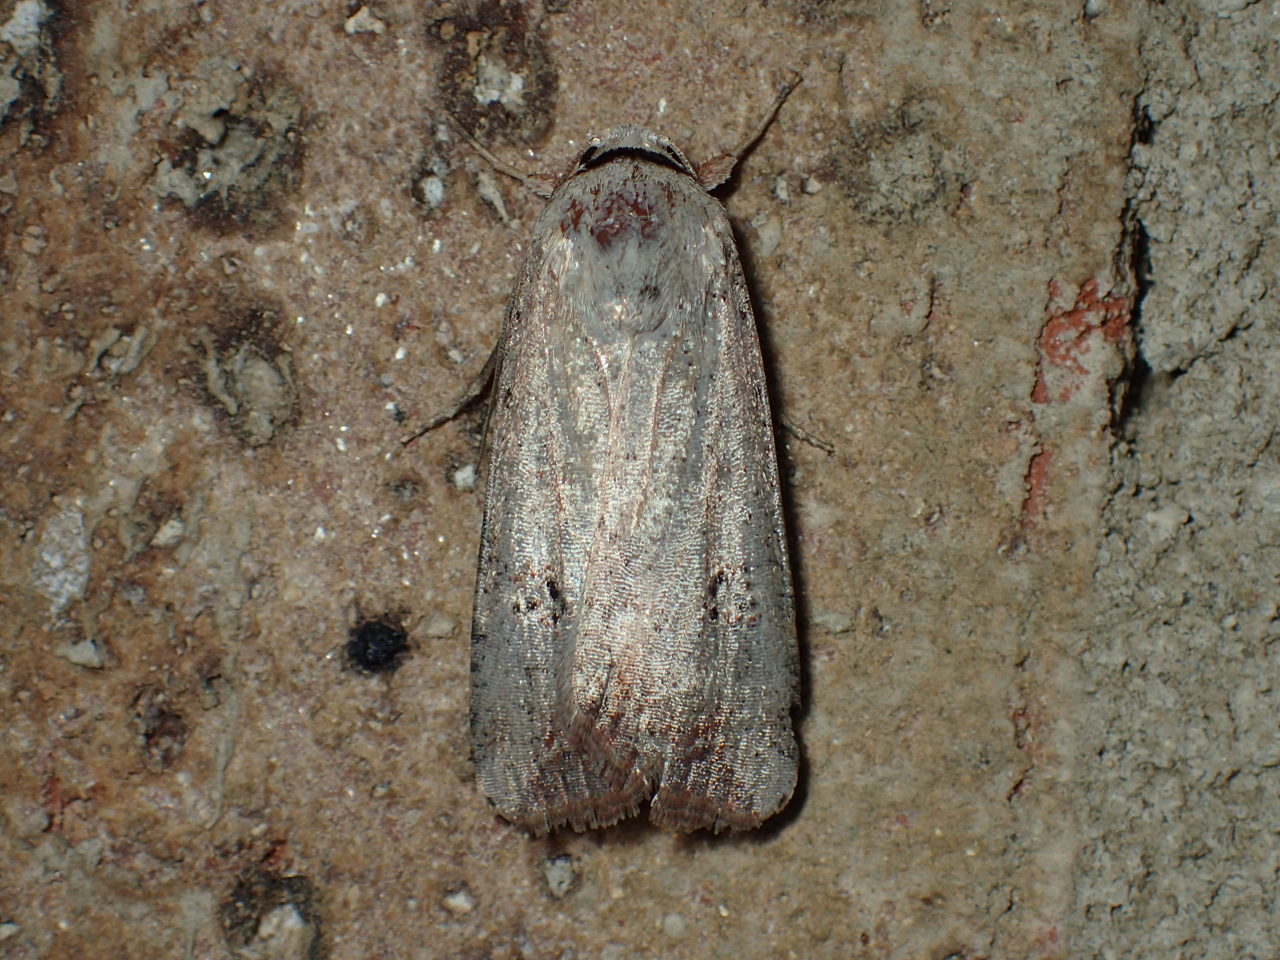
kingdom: Animalia
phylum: Arthropoda
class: Insecta
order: Lepidoptera
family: Noctuidae
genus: Anicla
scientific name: Anicla infecta
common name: Green cutworm
